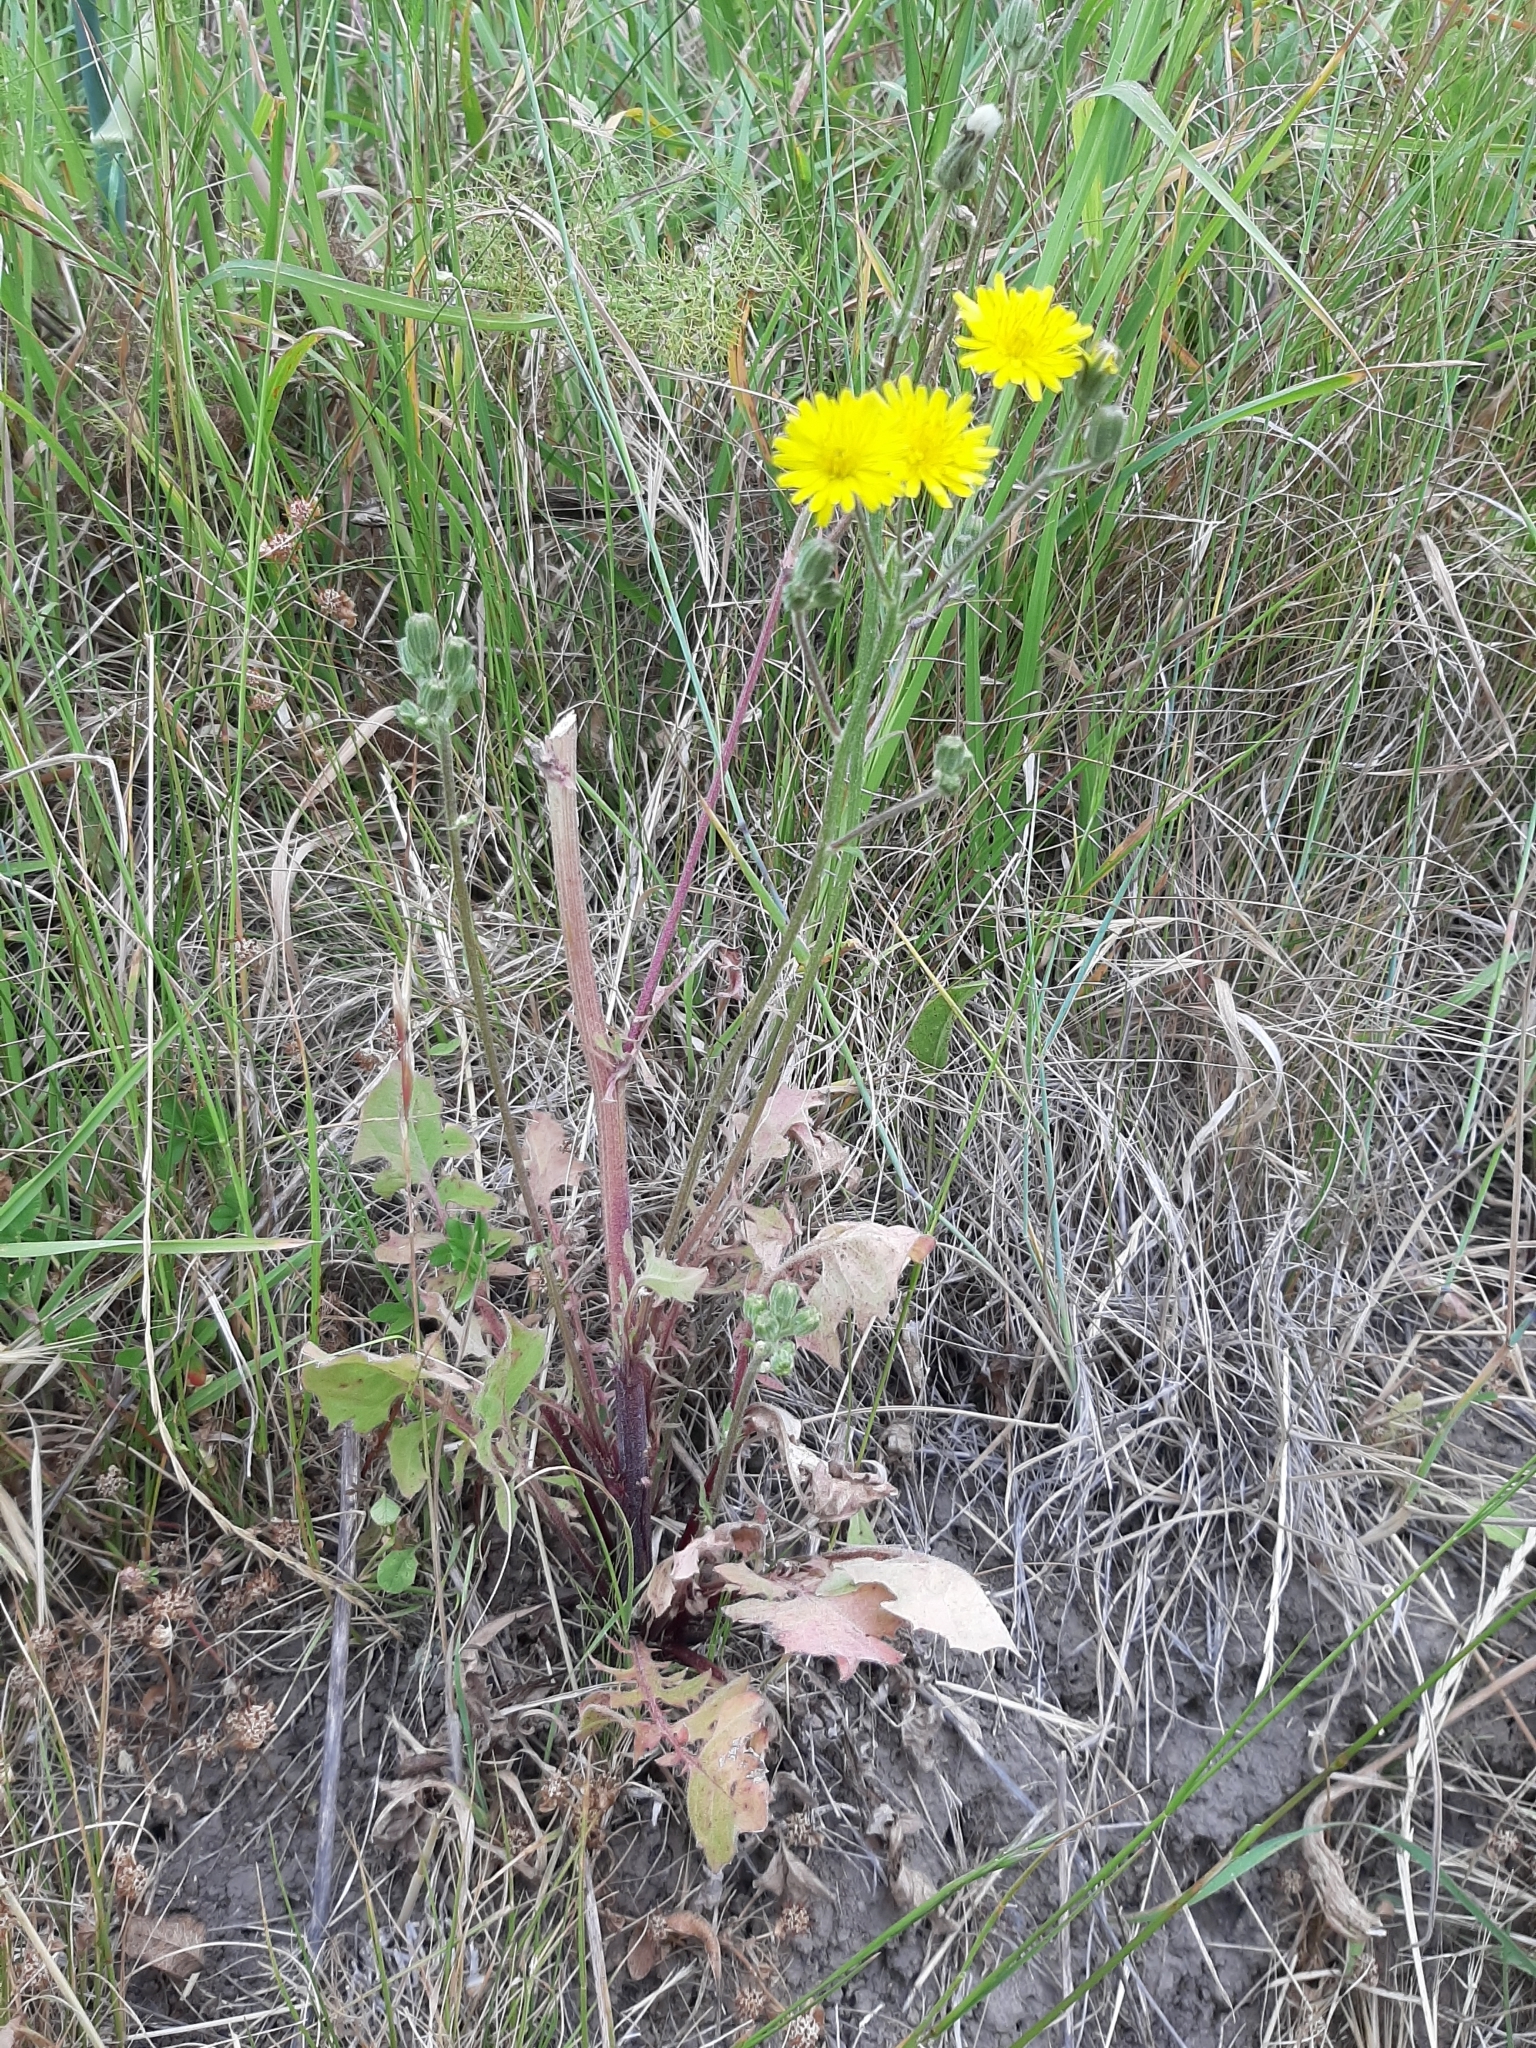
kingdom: Plantae
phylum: Tracheophyta
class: Magnoliopsida
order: Asterales
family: Asteraceae
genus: Crepis
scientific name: Crepis vesicaria
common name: Beaked hawksbeard
